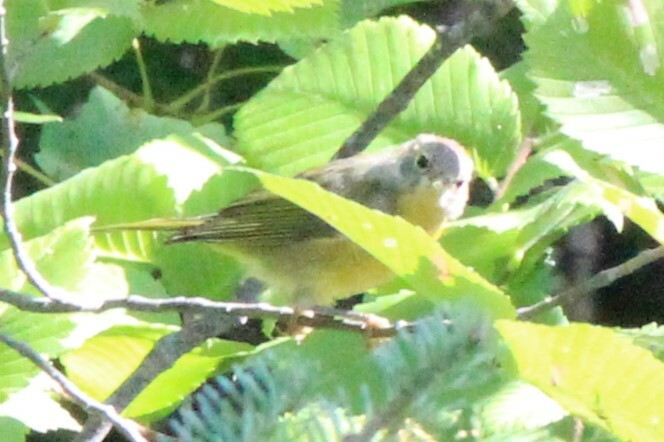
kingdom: Animalia
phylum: Chordata
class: Aves
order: Passeriformes
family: Parulidae
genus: Leiothlypis
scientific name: Leiothlypis ruficapilla
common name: Nashville warbler
